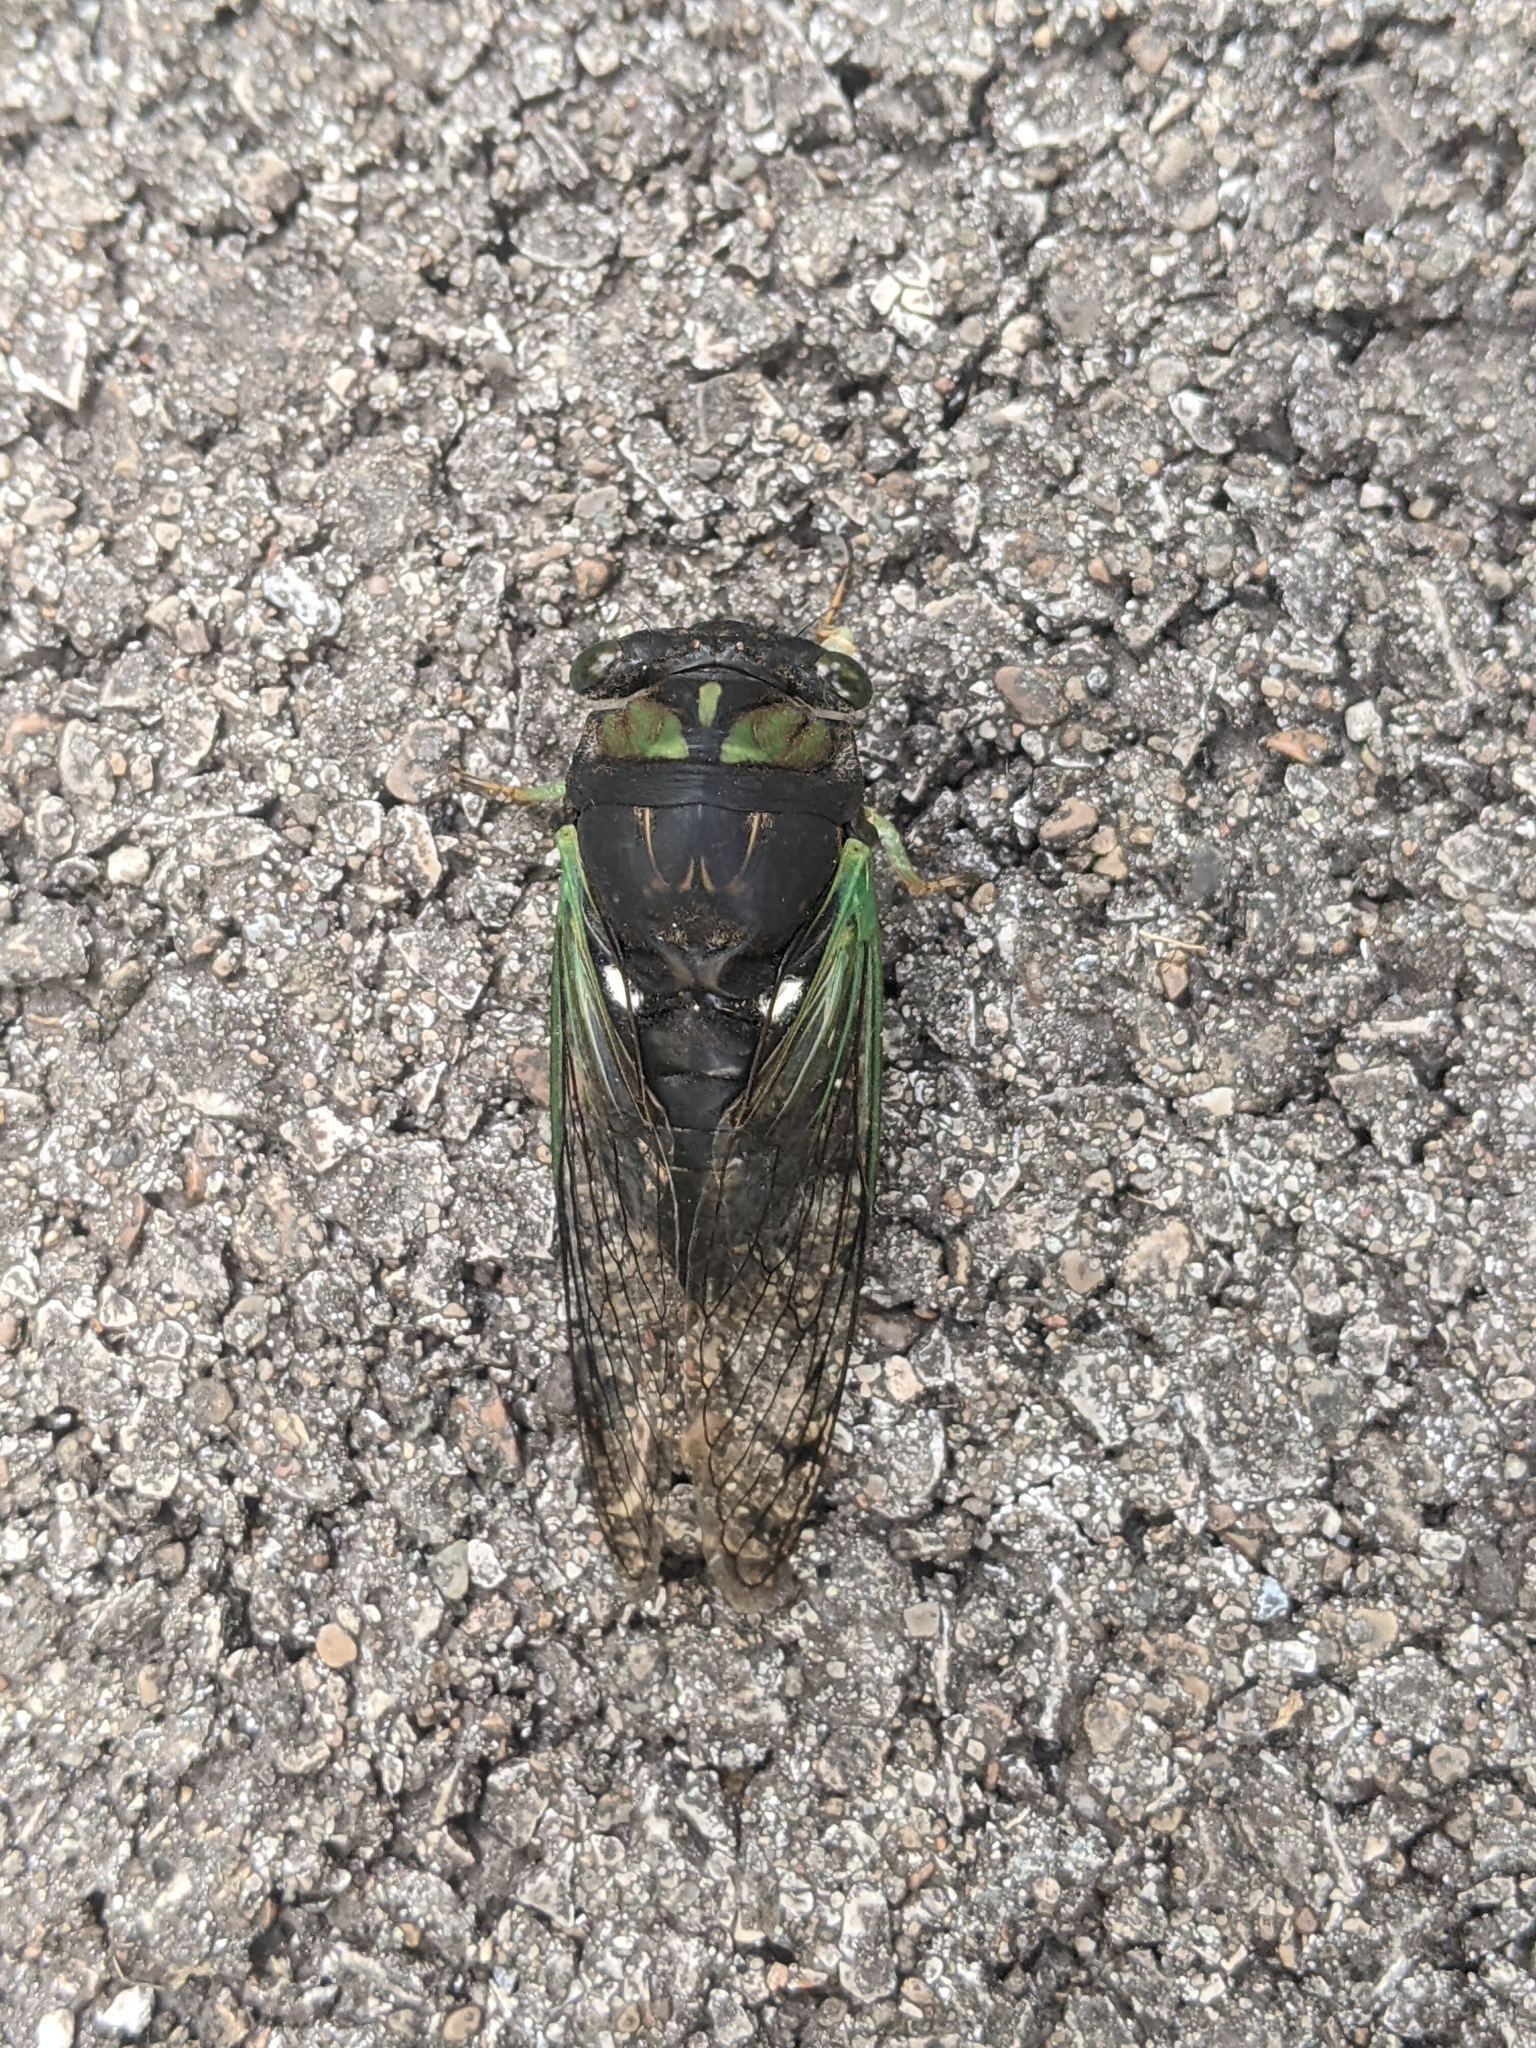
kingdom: Animalia
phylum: Arthropoda
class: Insecta
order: Hemiptera
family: Cicadidae
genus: Neotibicen
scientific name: Neotibicen tibicen
